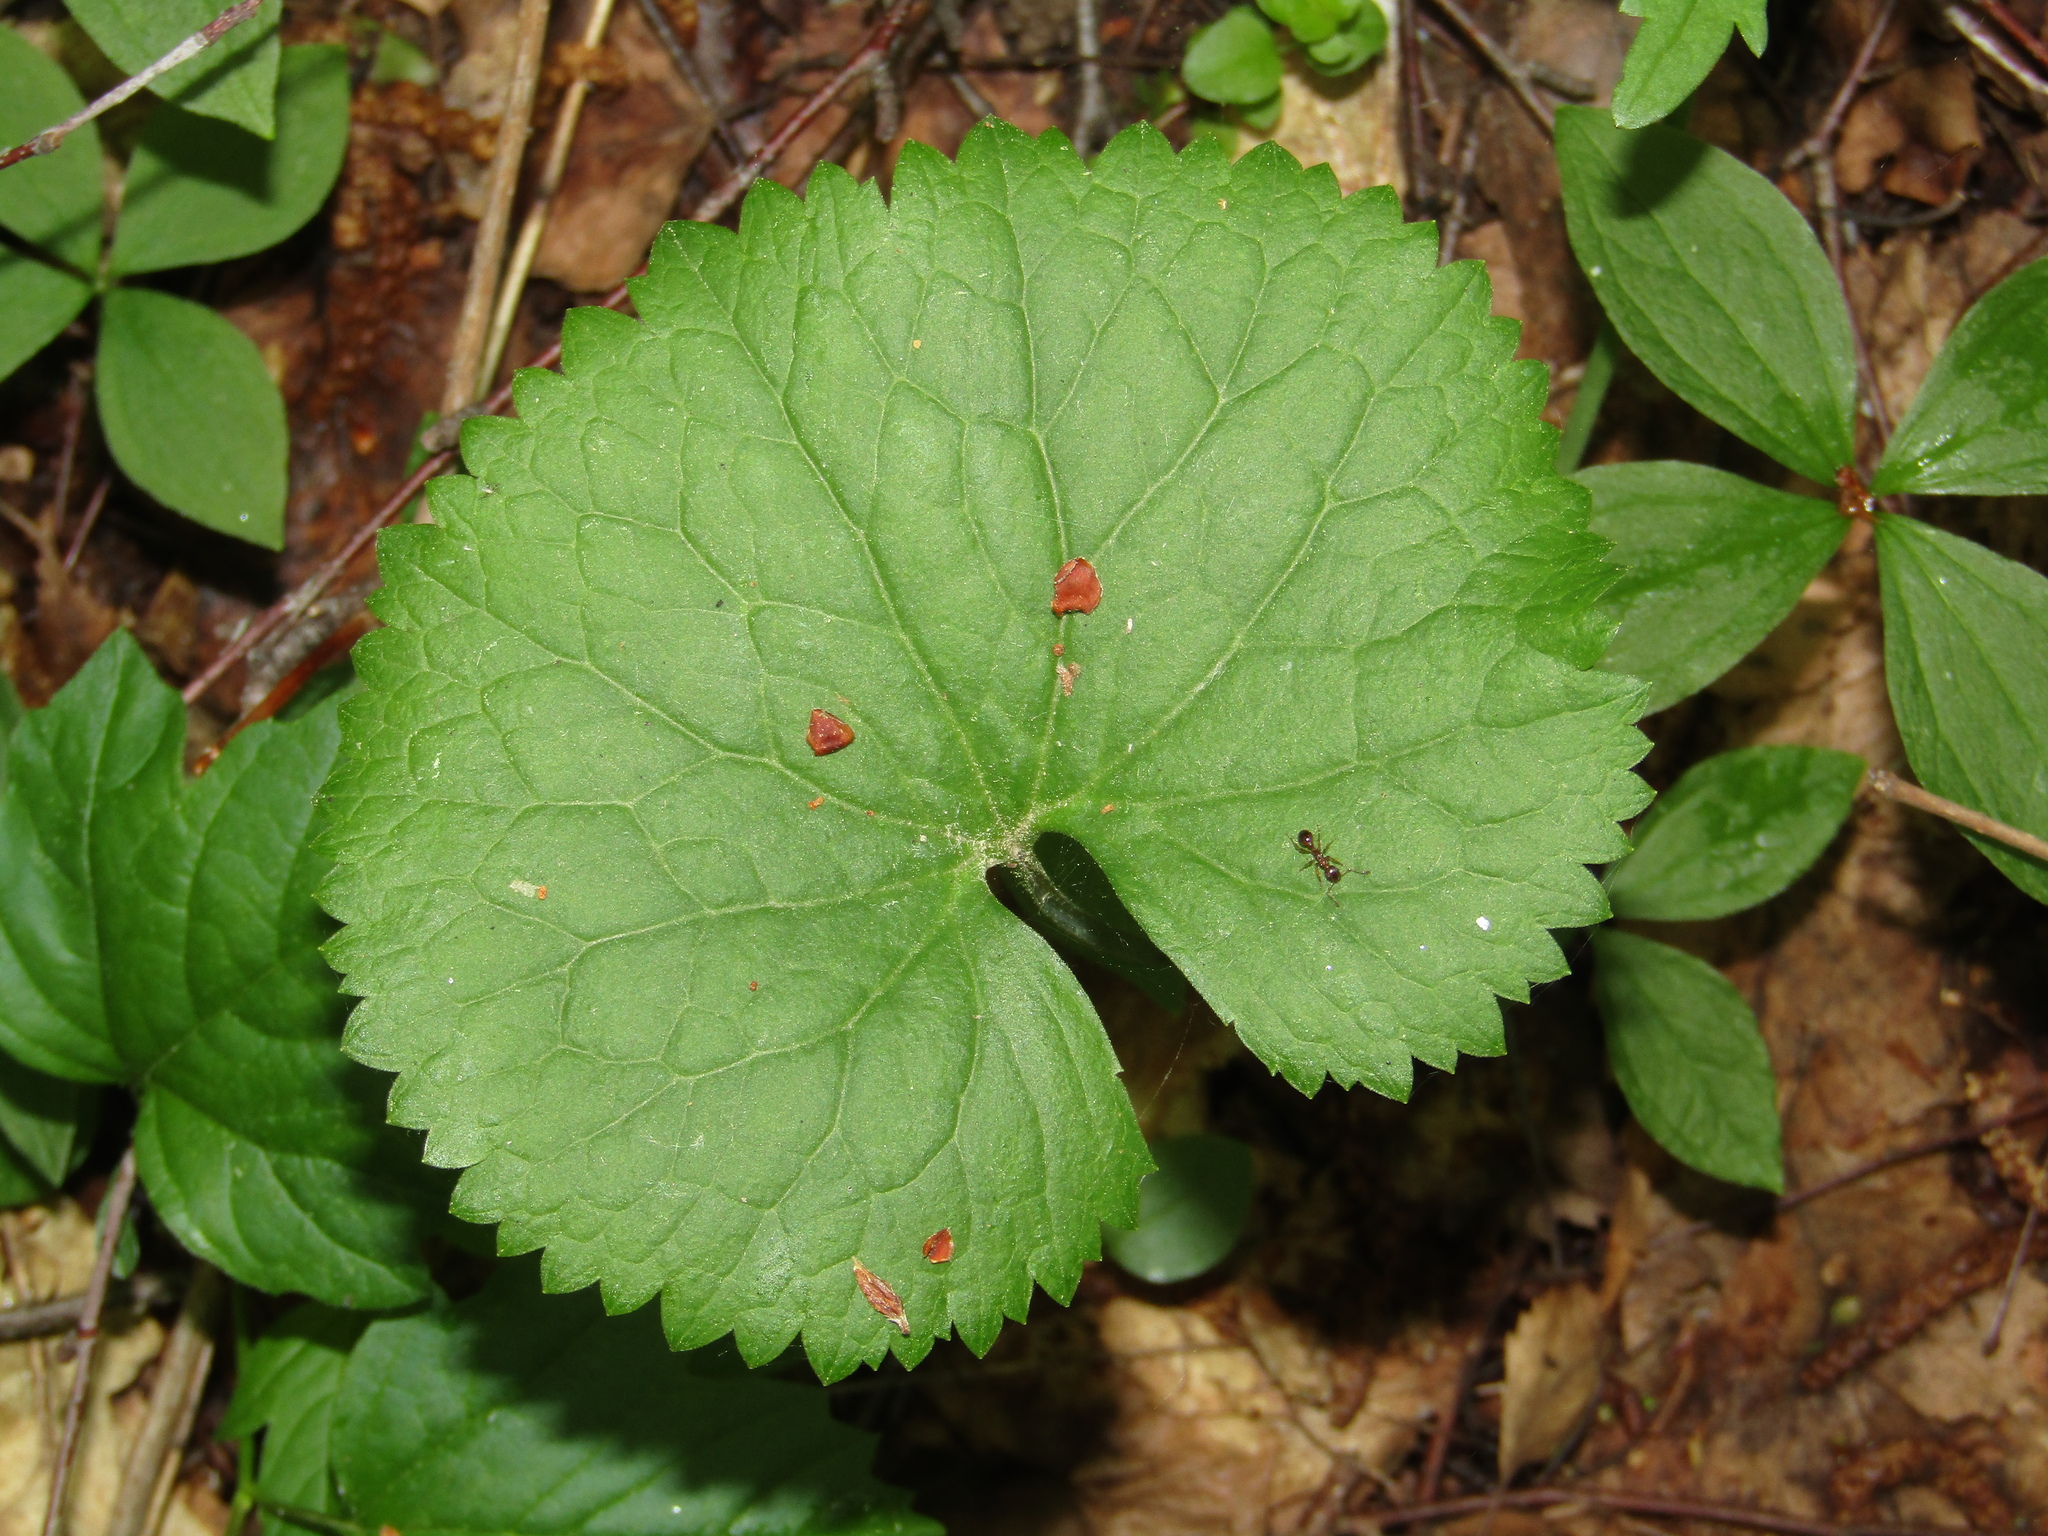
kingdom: Plantae
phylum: Tracheophyta
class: Magnoliopsida
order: Ranunculales
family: Ranunculaceae
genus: Ranunculus
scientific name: Ranunculus cassubicus
